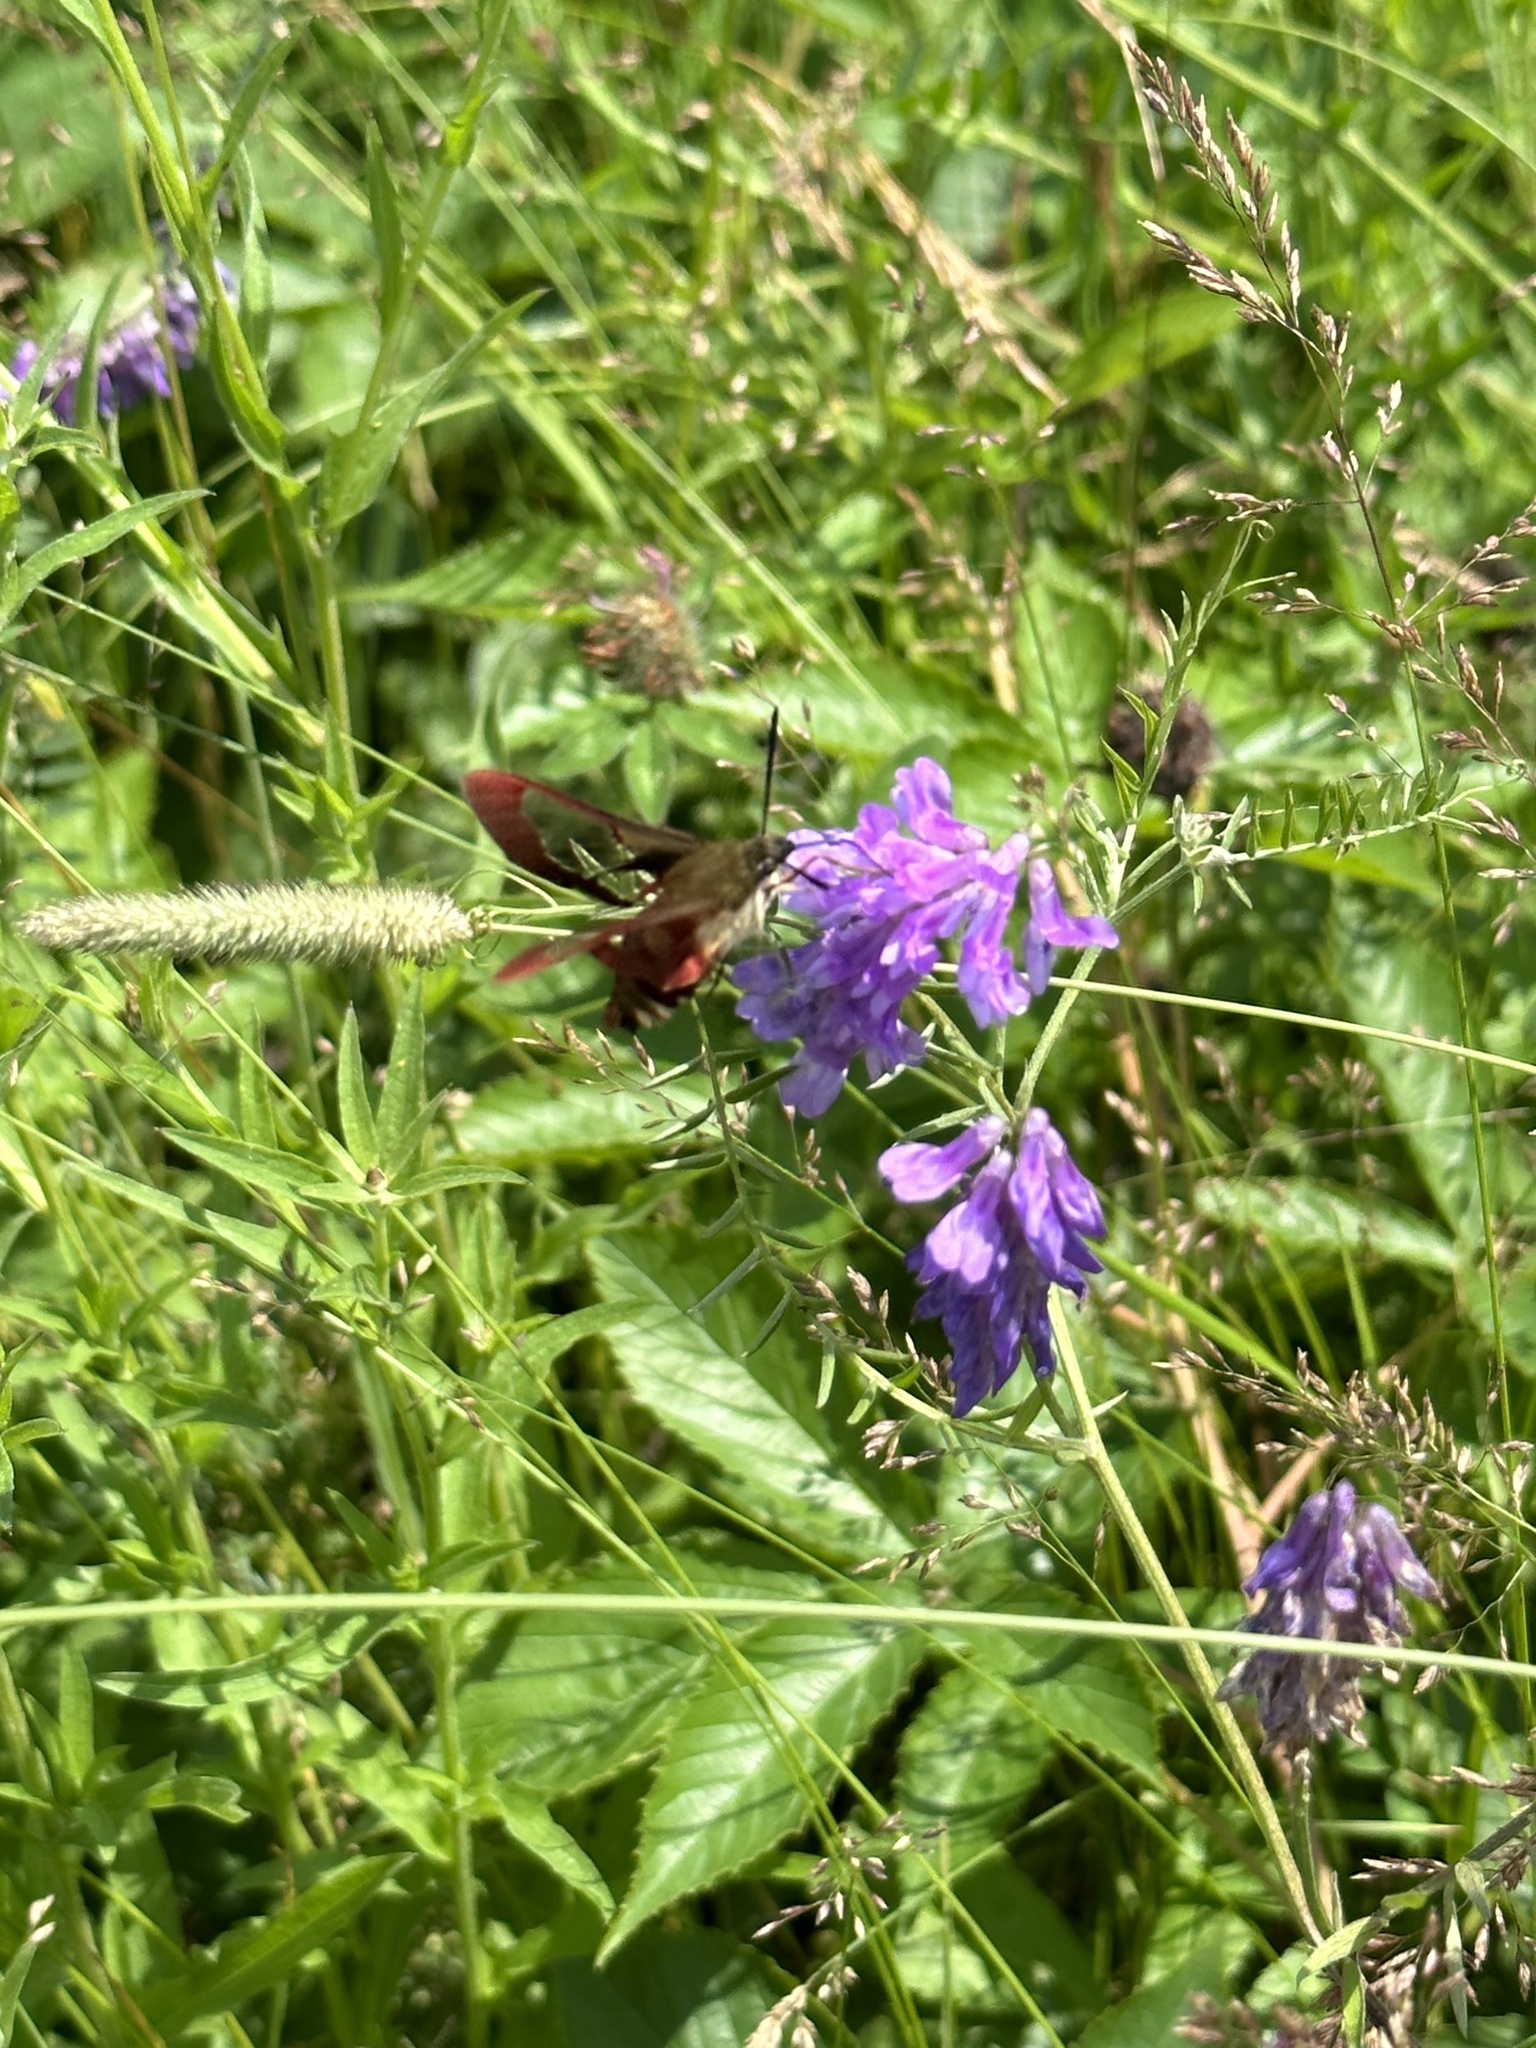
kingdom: Animalia
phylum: Arthropoda
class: Insecta
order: Lepidoptera
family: Sphingidae
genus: Hemaris
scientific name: Hemaris thysbe
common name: Common clear-wing
